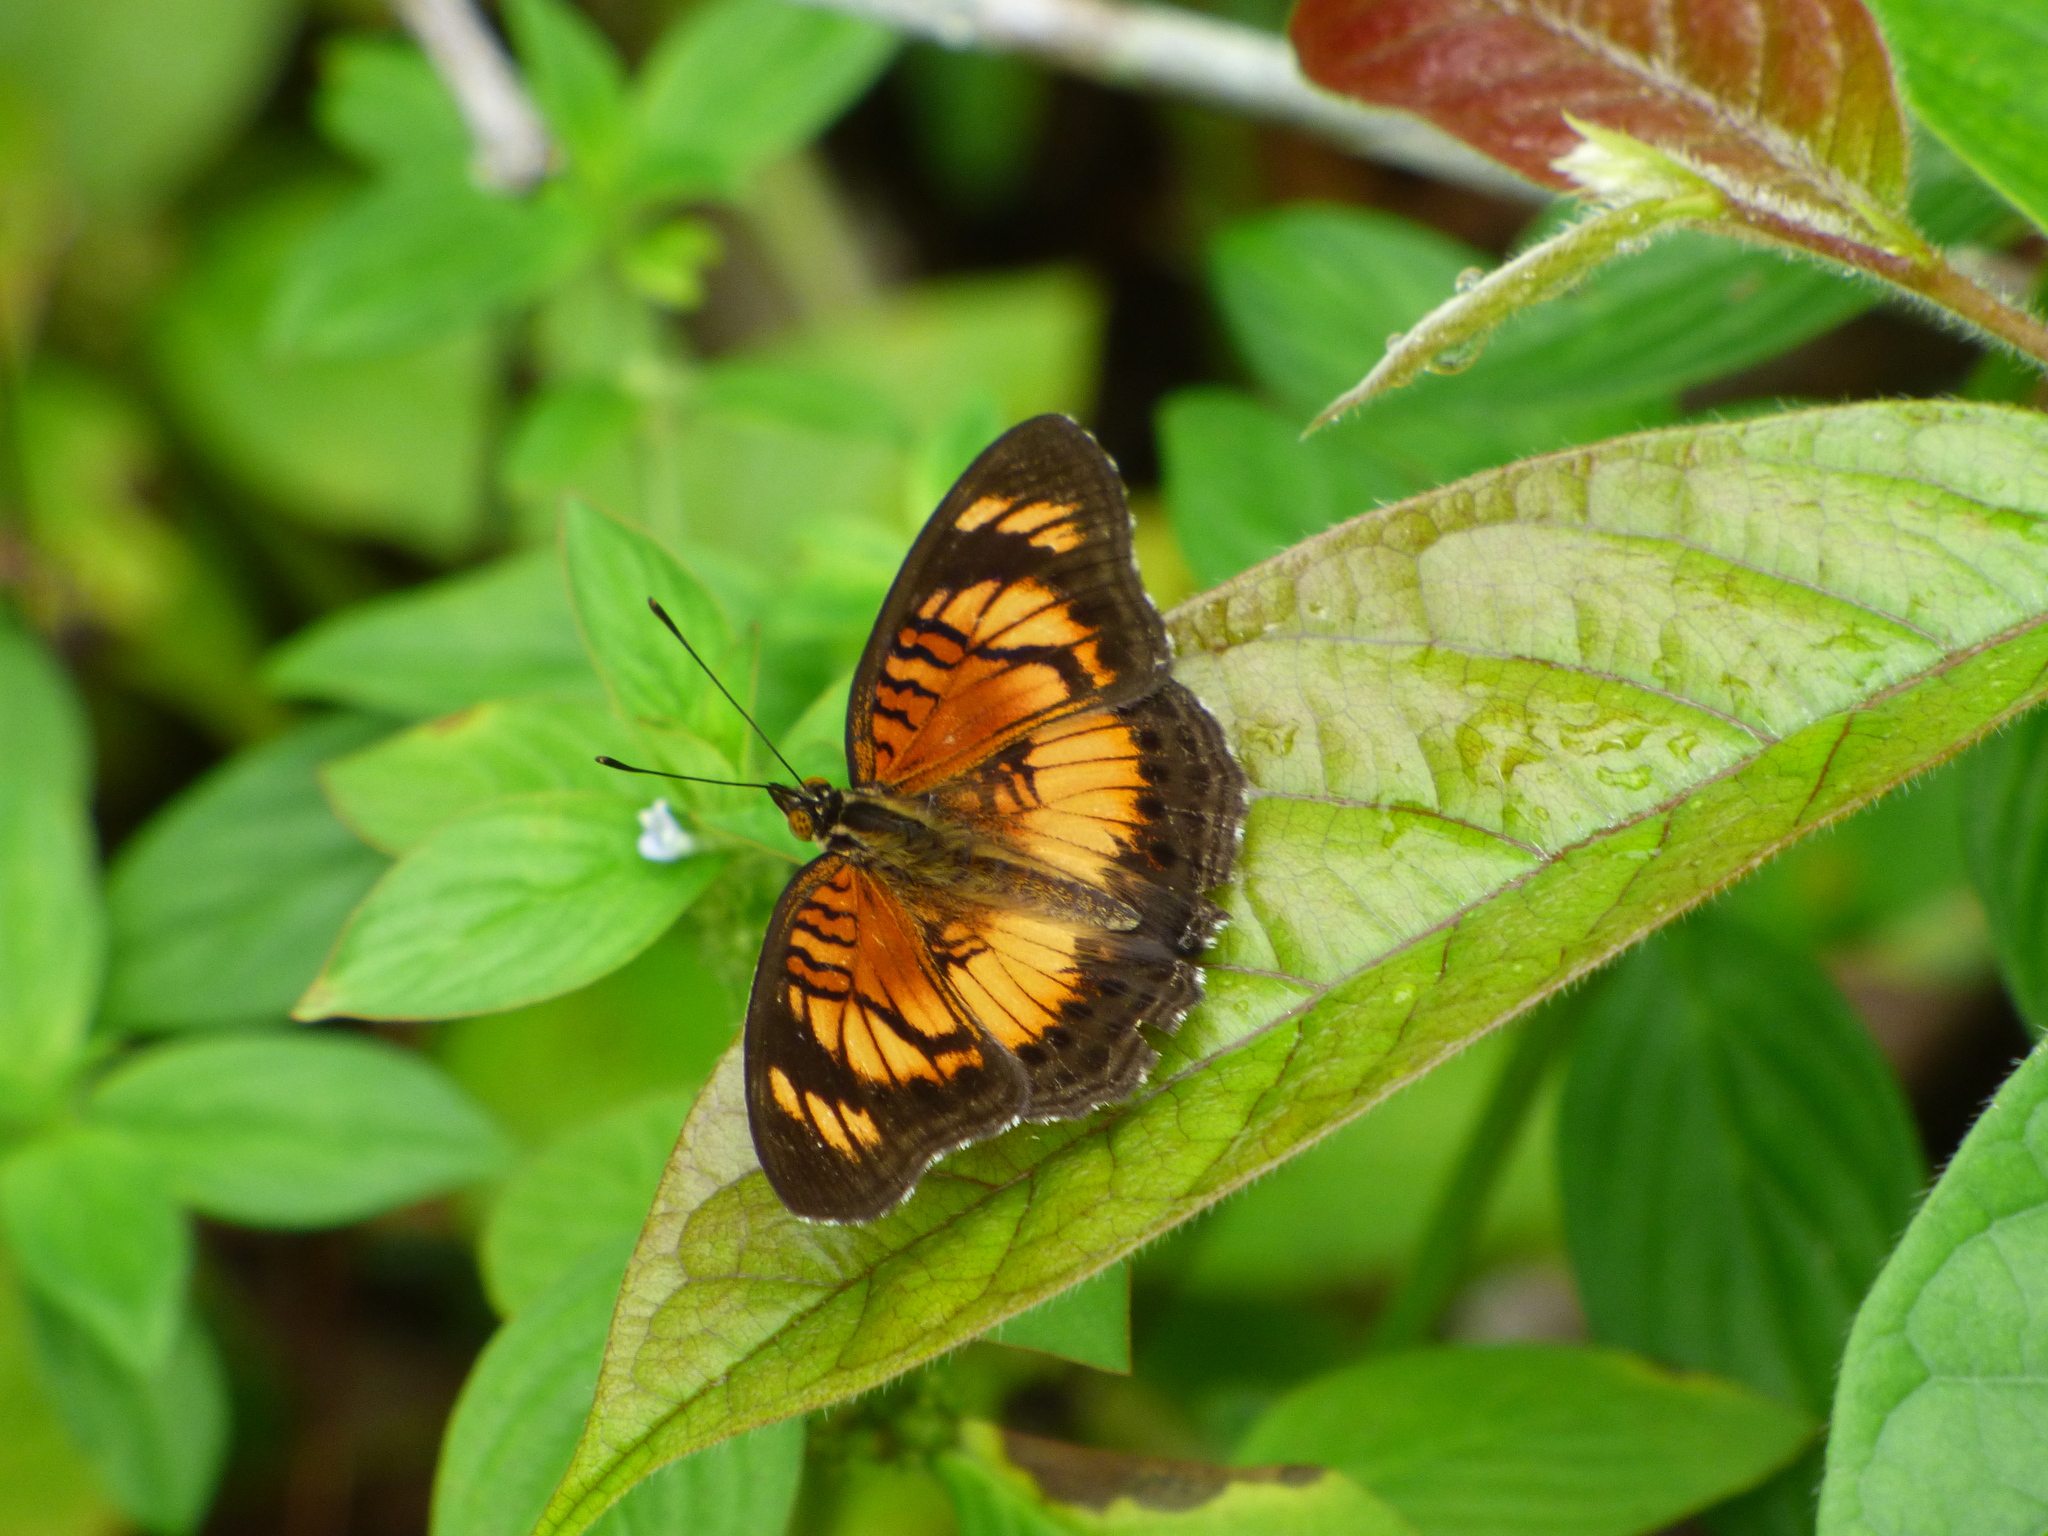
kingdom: Animalia
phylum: Arthropoda
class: Insecta
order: Lepidoptera
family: Nymphalidae
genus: Junonia
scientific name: Junonia sophia
